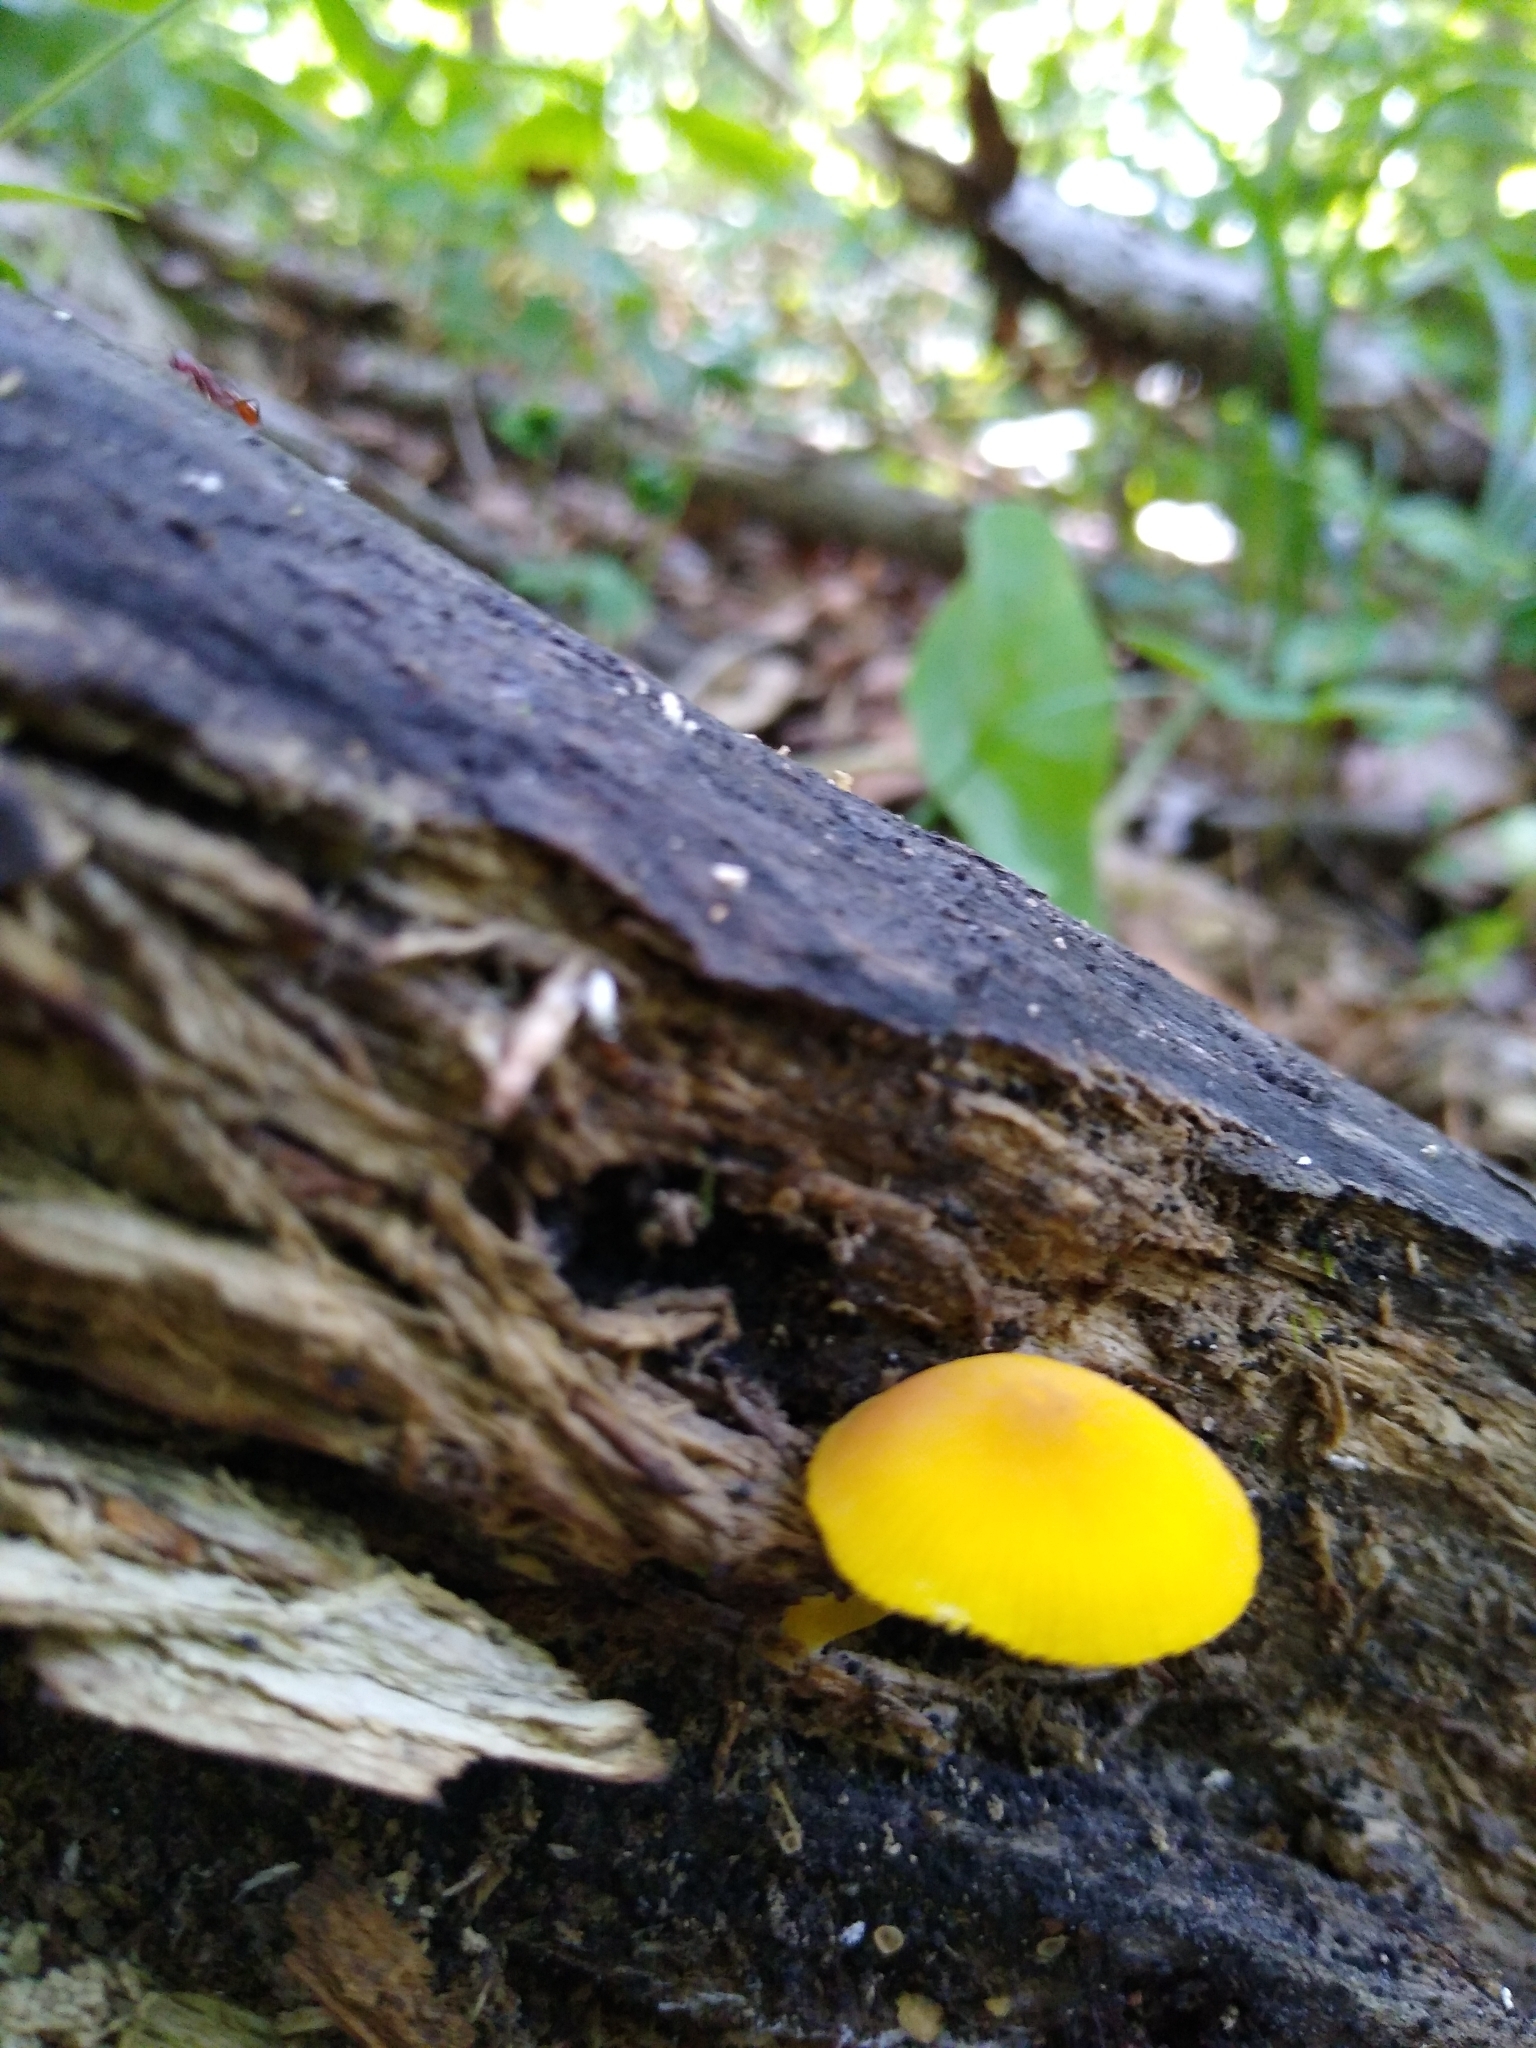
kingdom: Fungi
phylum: Basidiomycota
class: Agaricomycetes
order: Agaricales
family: Pluteaceae
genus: Pluteus
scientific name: Pluteus chrysophlebius
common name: Yellow deer mushroom
